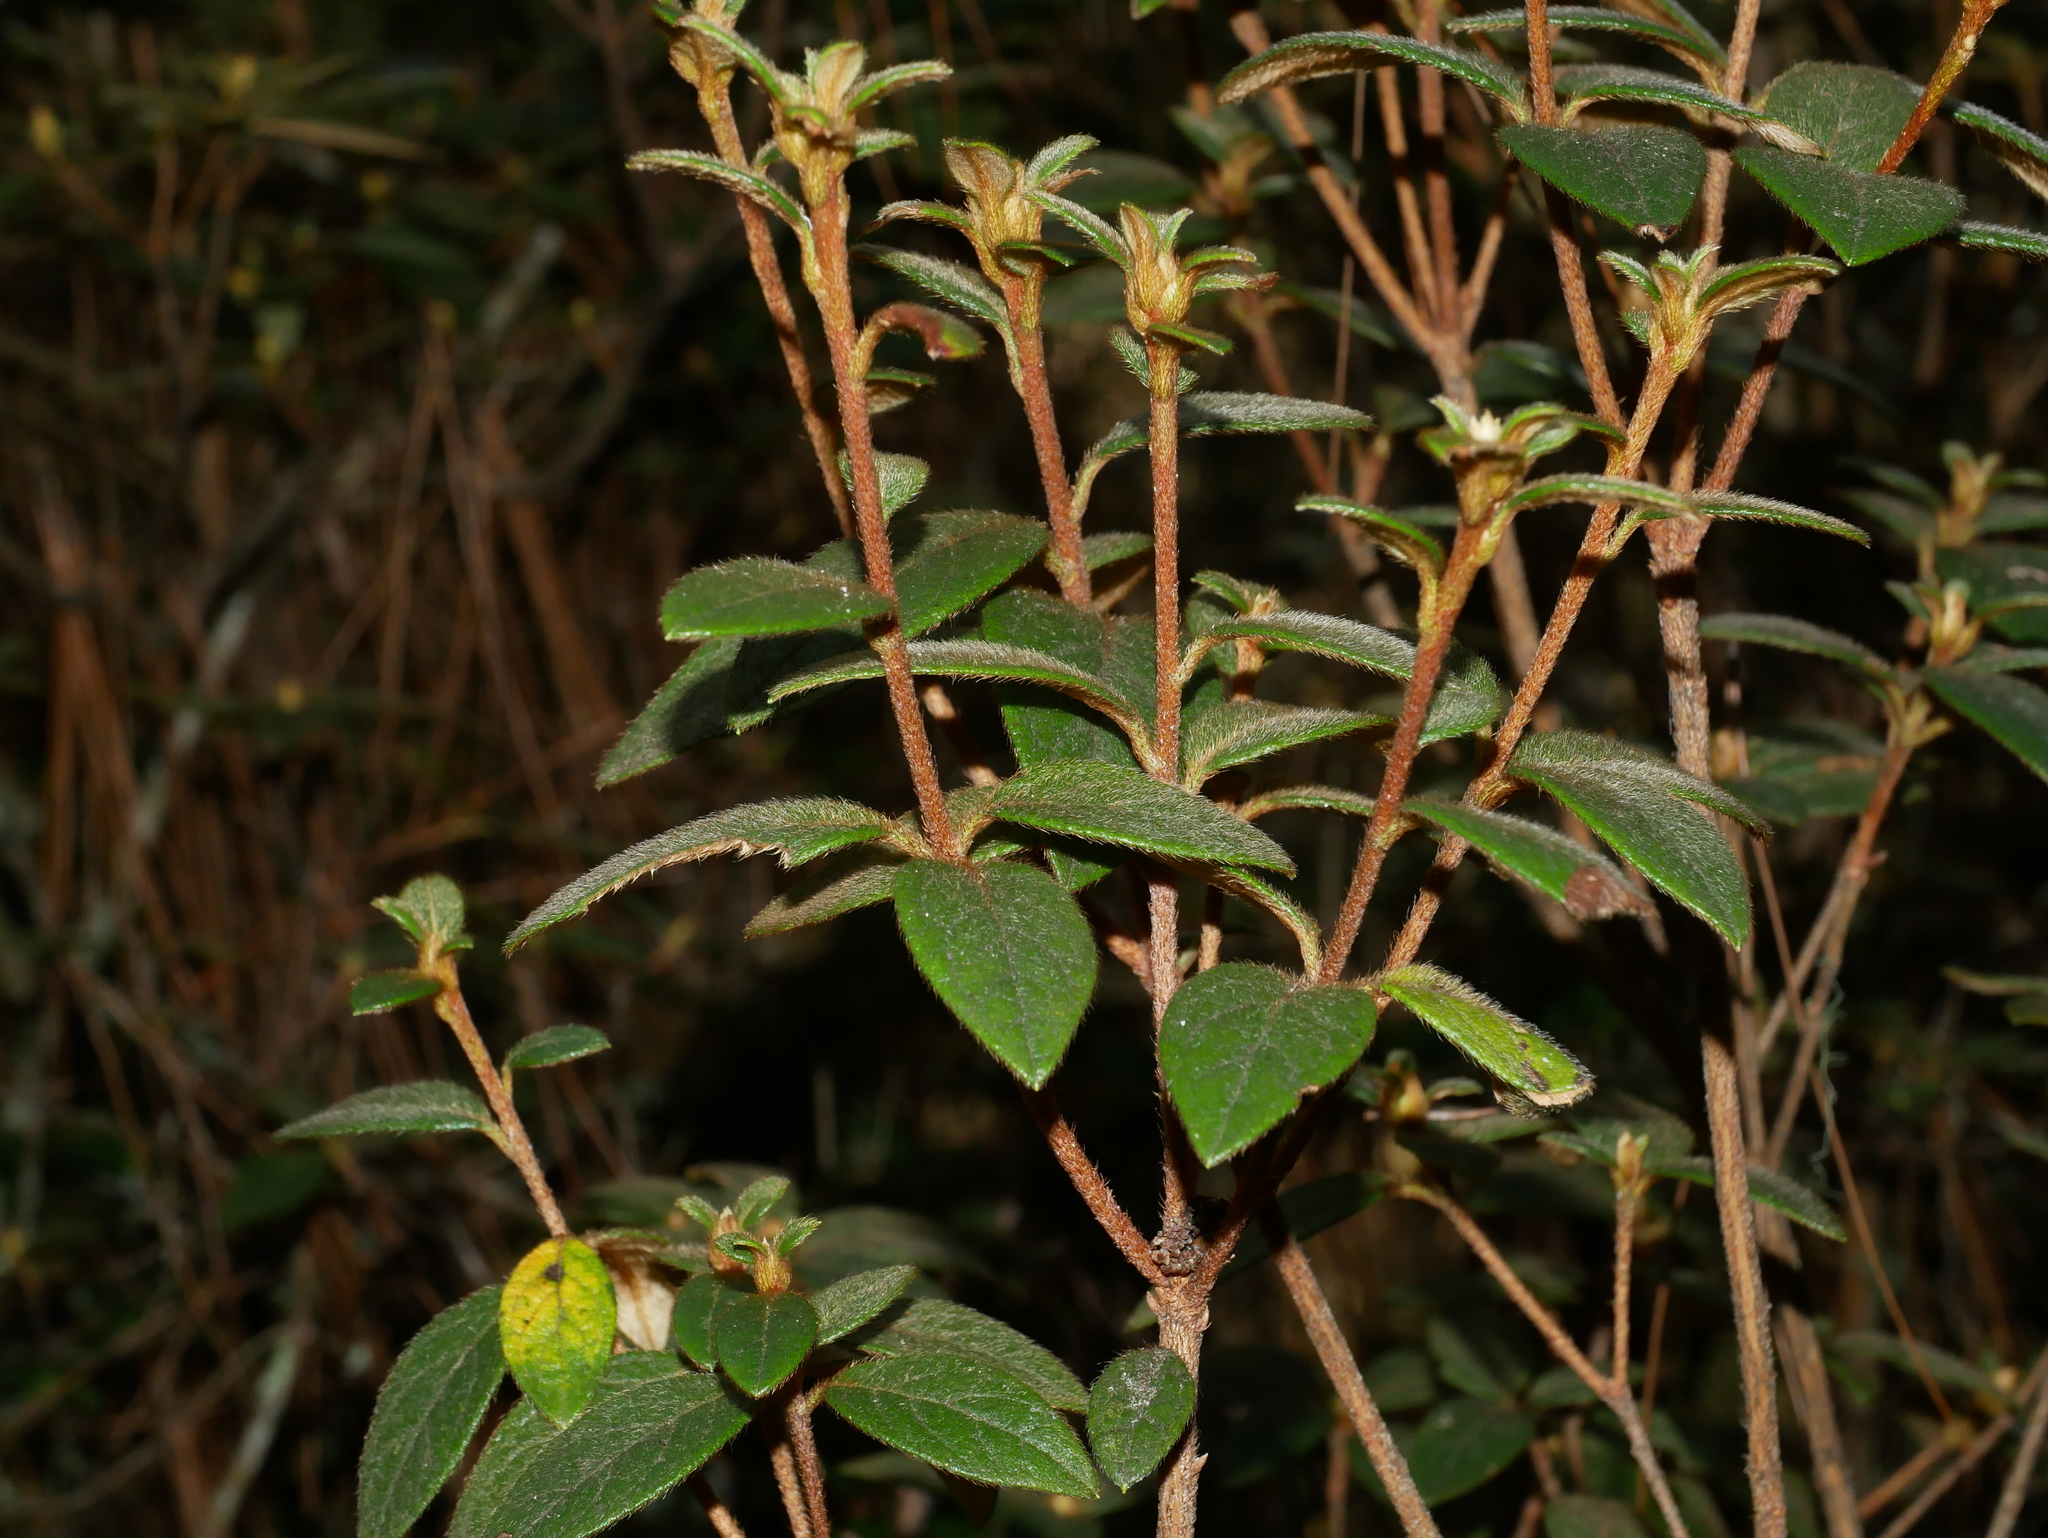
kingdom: Plantae
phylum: Tracheophyta
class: Magnoliopsida
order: Ericales
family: Ericaceae
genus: Rhododendron
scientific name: Rhododendron taiwanalpinum
